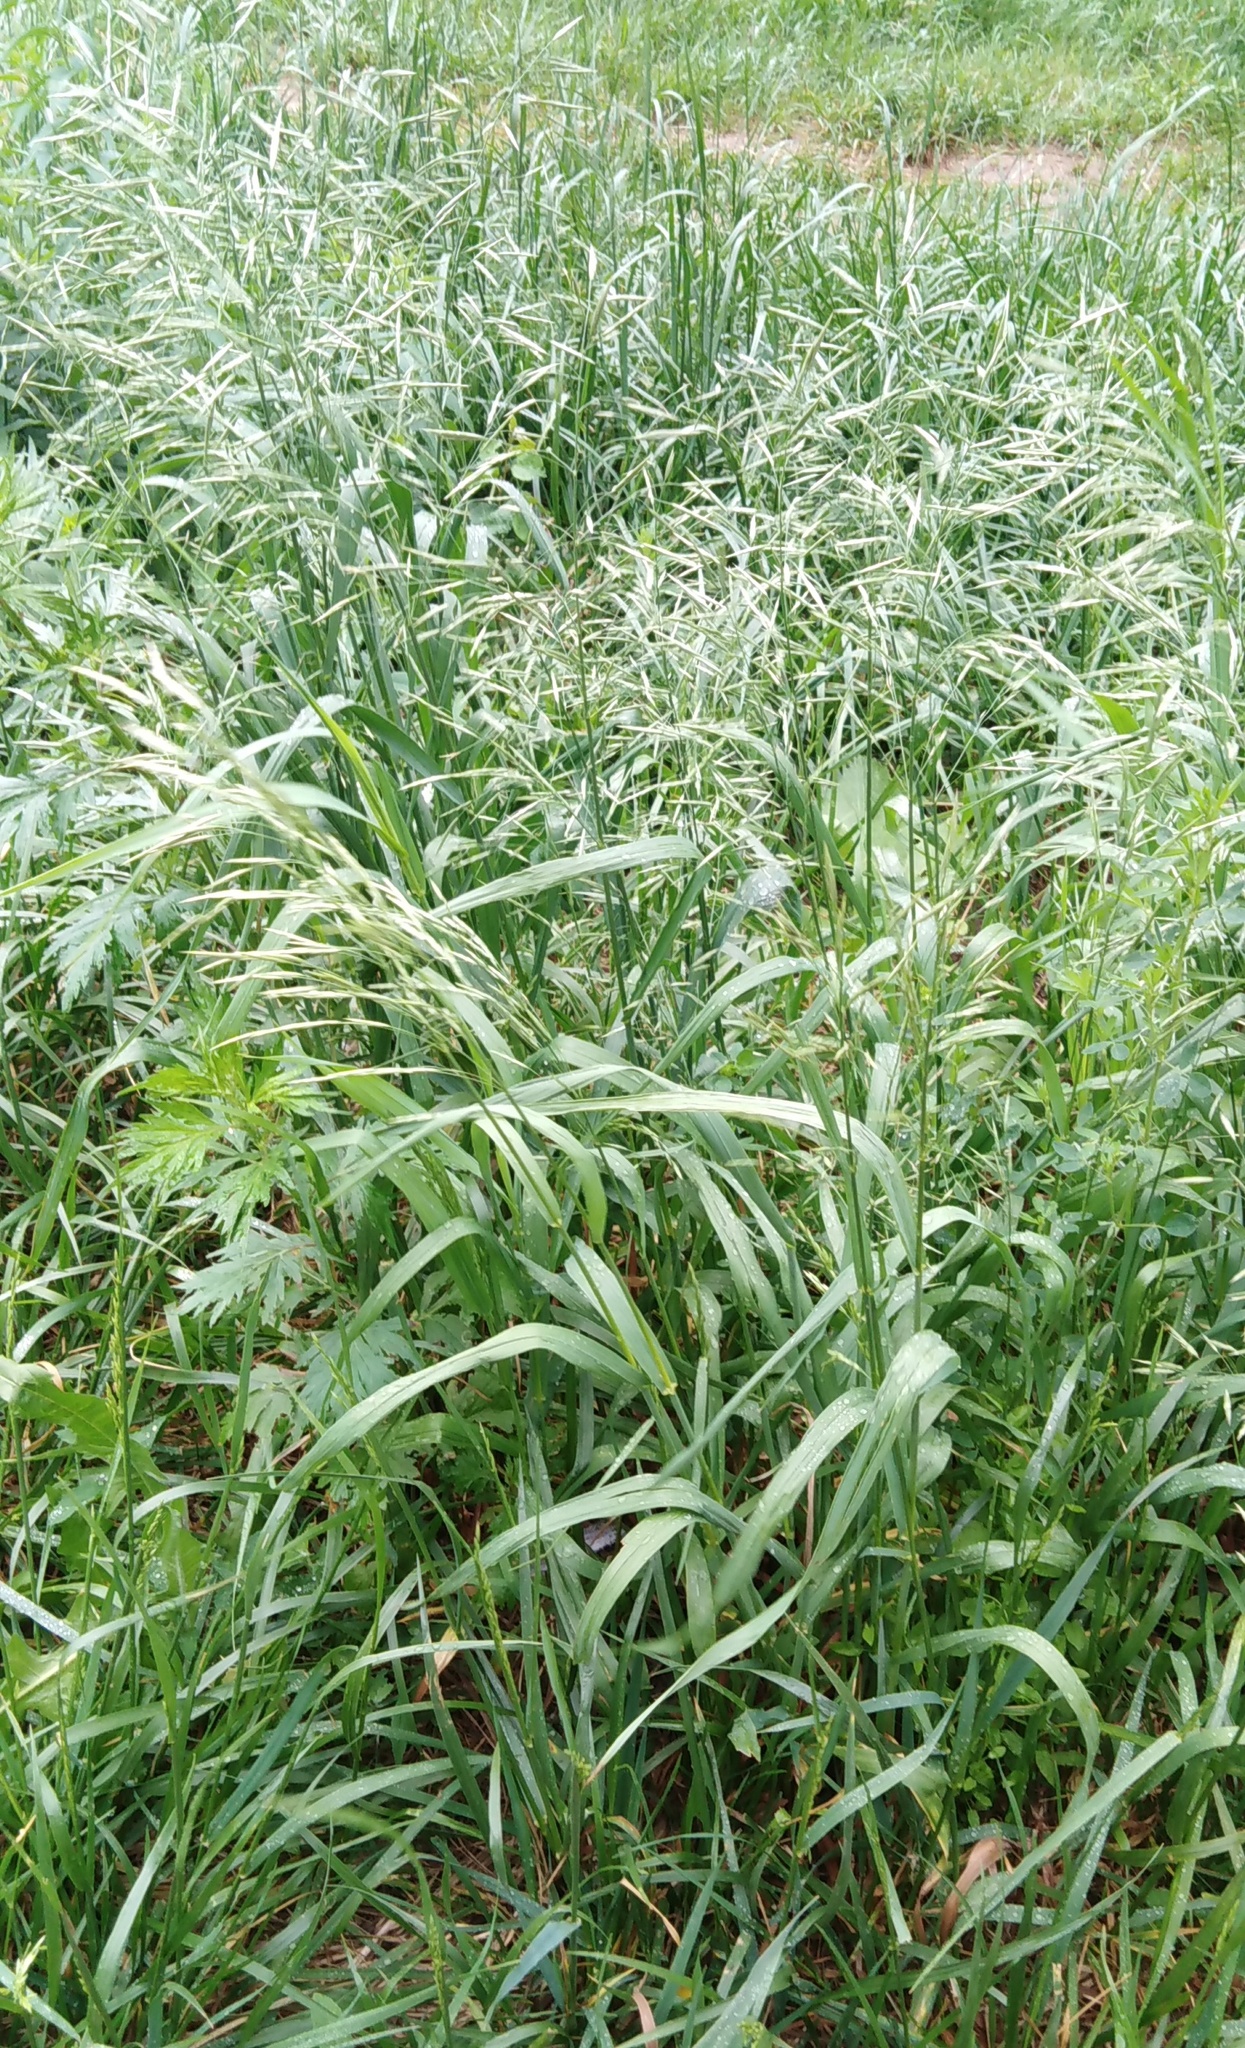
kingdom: Plantae
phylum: Tracheophyta
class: Liliopsida
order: Poales
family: Poaceae
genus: Bromus
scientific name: Bromus inermis
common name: Smooth brome
